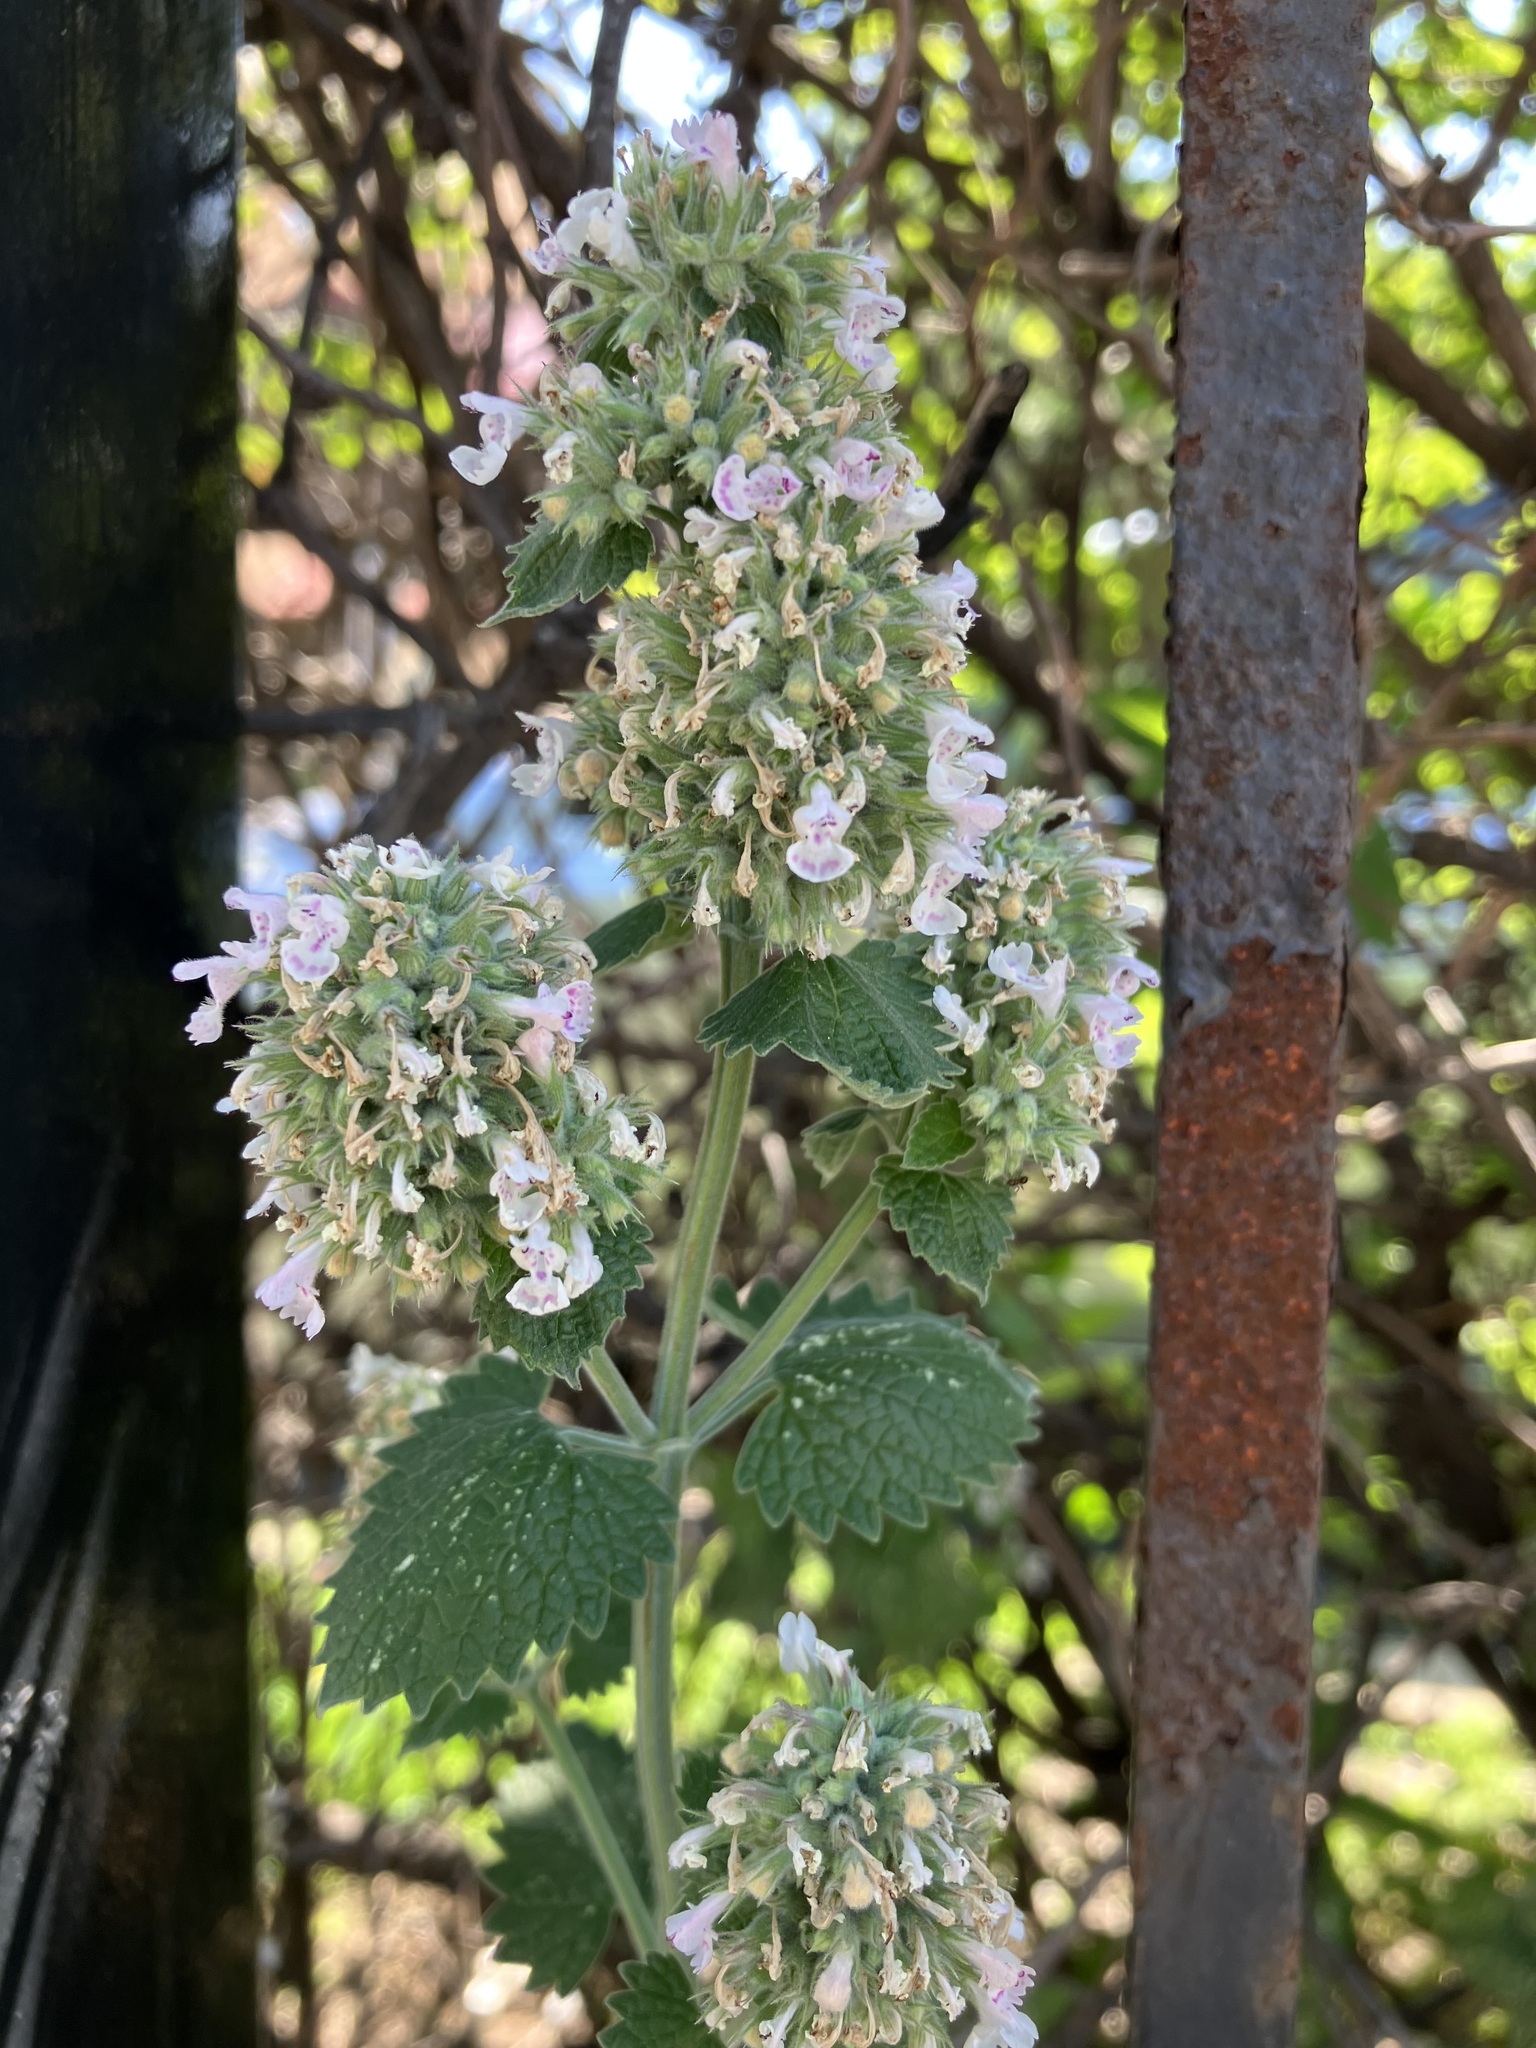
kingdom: Plantae
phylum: Tracheophyta
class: Magnoliopsida
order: Lamiales
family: Lamiaceae
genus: Nepeta
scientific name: Nepeta cataria
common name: Catnip
